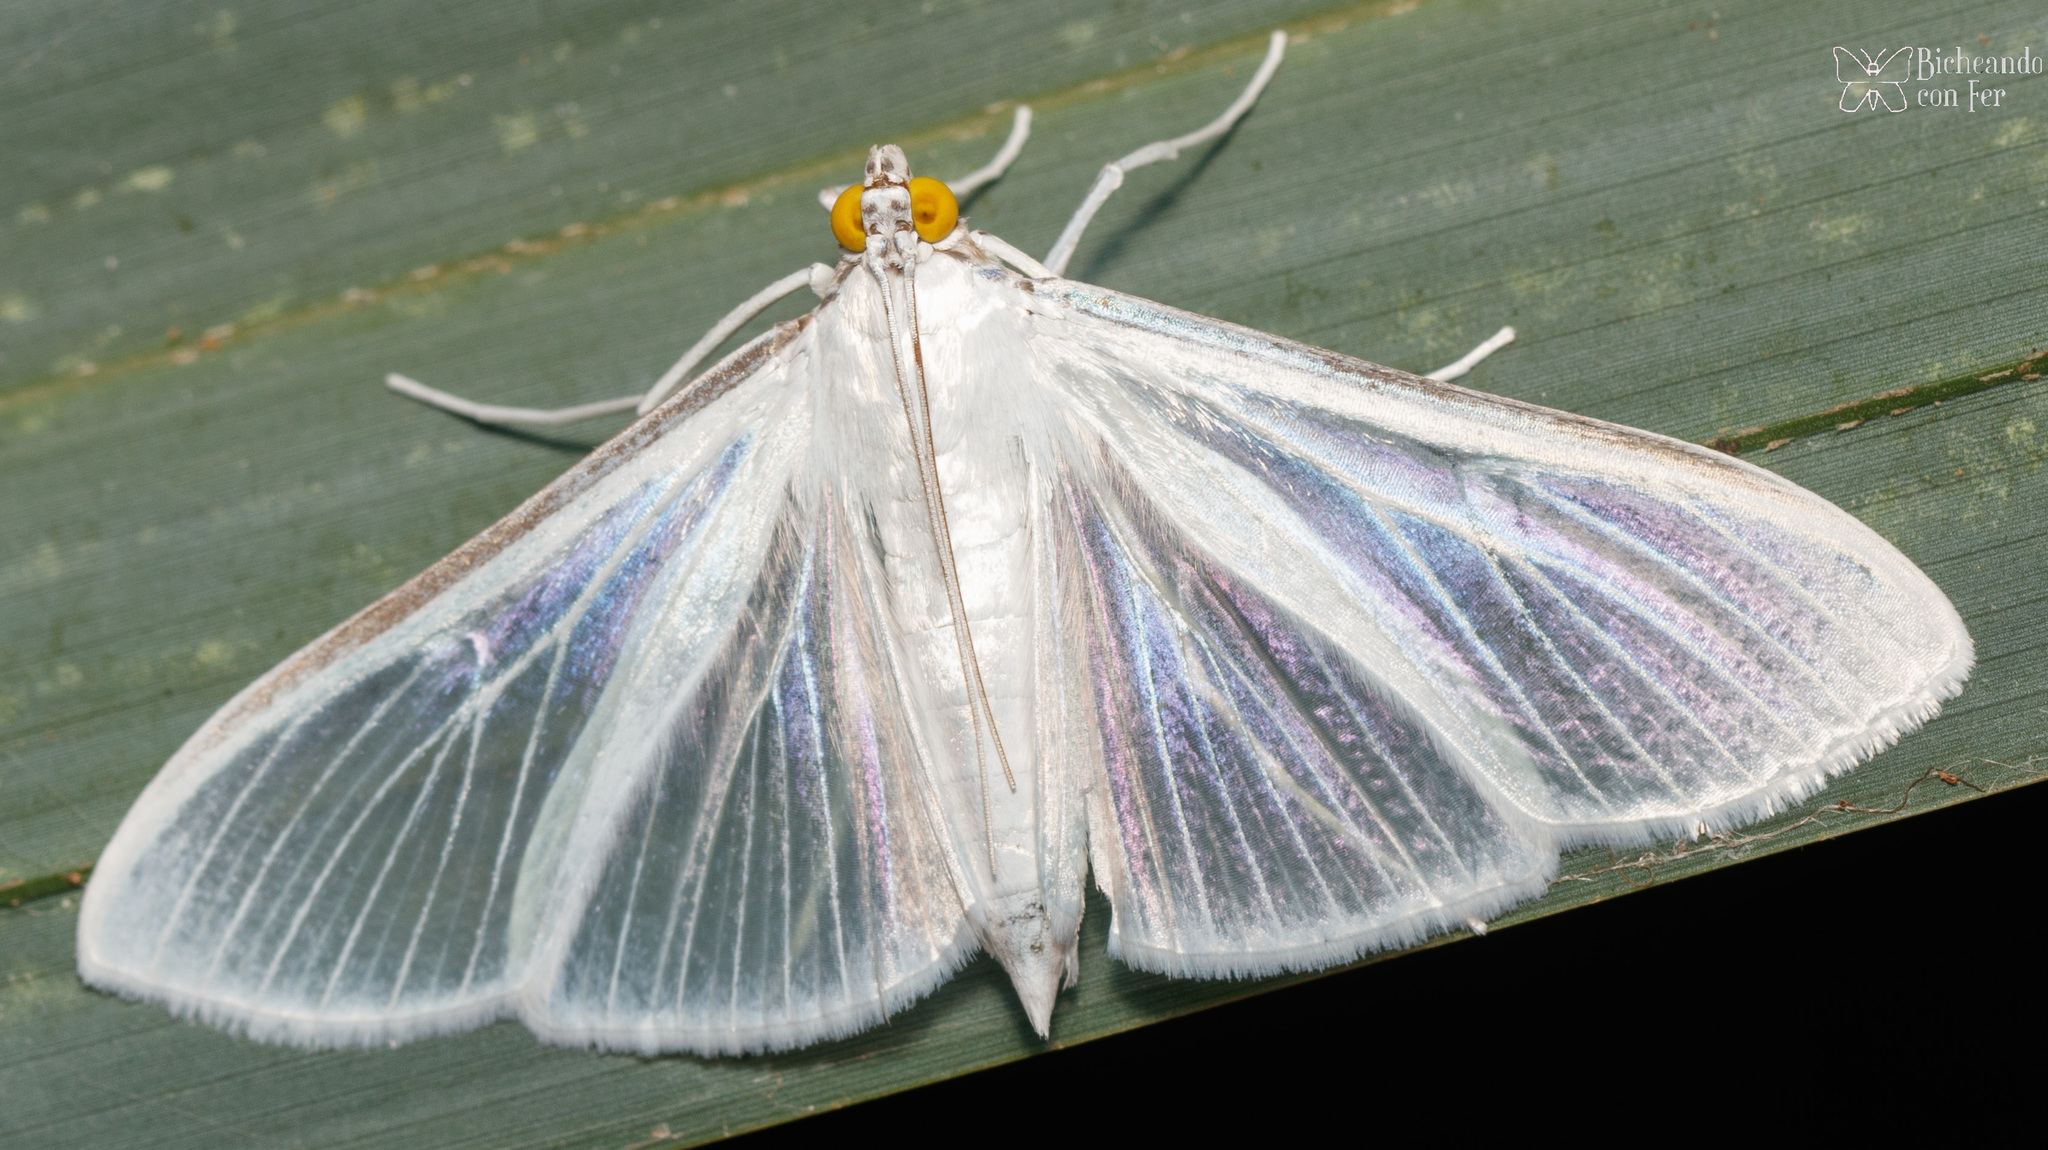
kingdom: Animalia
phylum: Arthropoda
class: Insecta
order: Lepidoptera
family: Crambidae
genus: Palpita
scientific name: Palpita flegia
